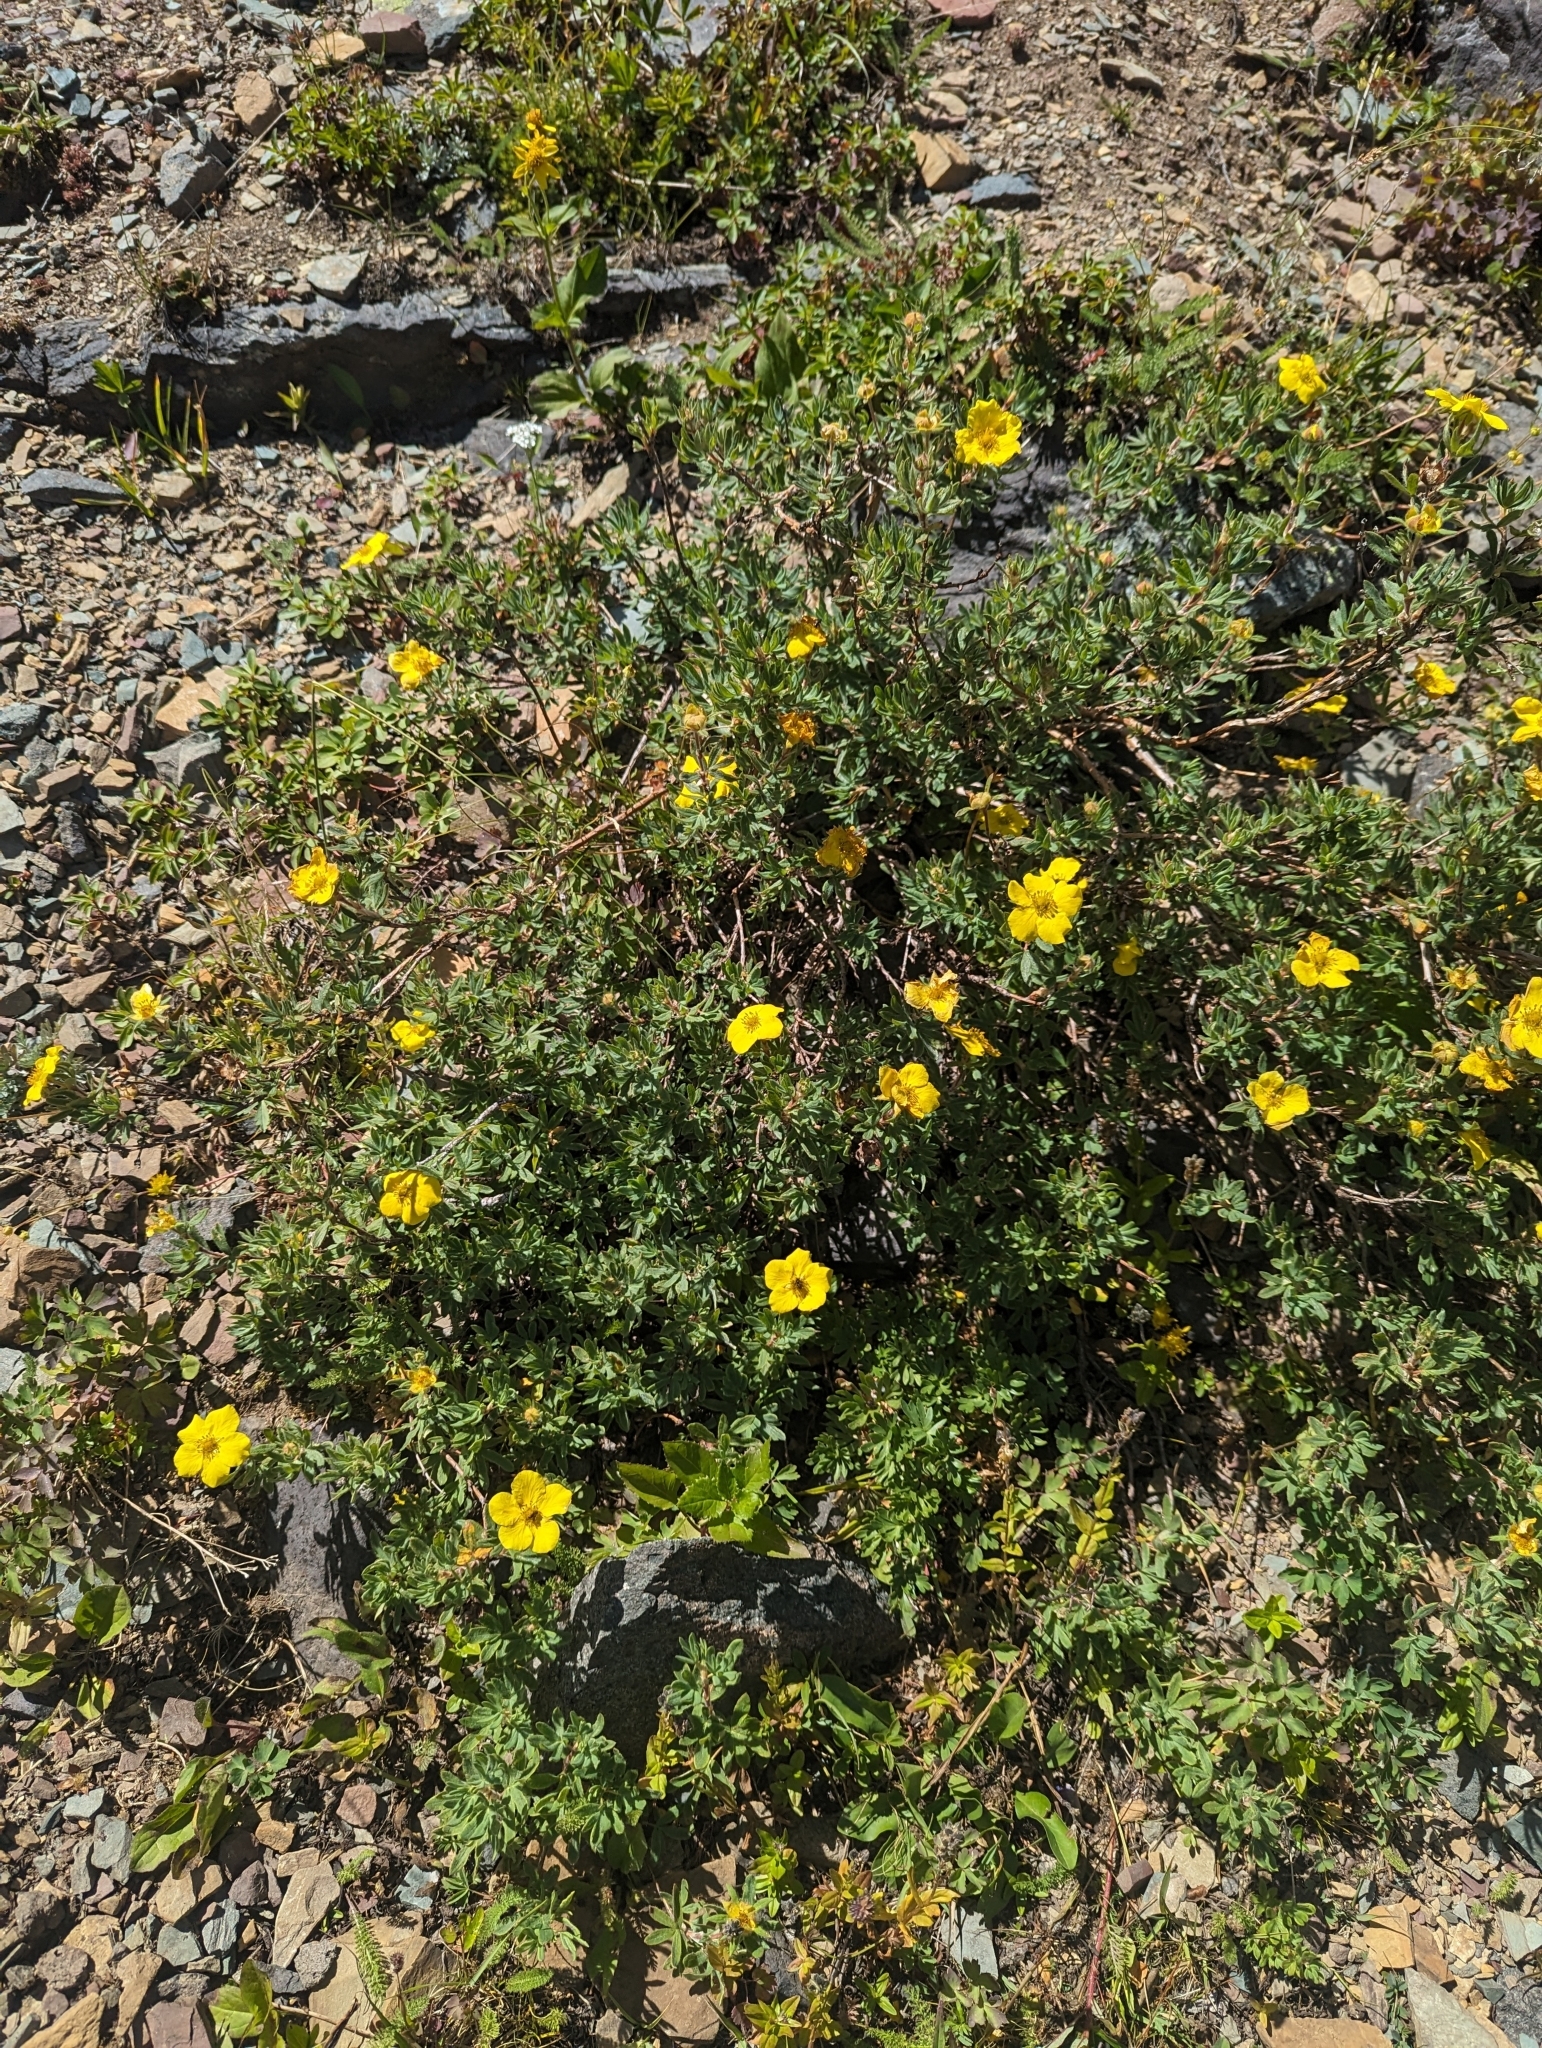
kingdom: Plantae
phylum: Tracheophyta
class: Magnoliopsida
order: Rosales
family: Rosaceae
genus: Dasiphora
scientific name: Dasiphora fruticosa
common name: Shrubby cinquefoil
